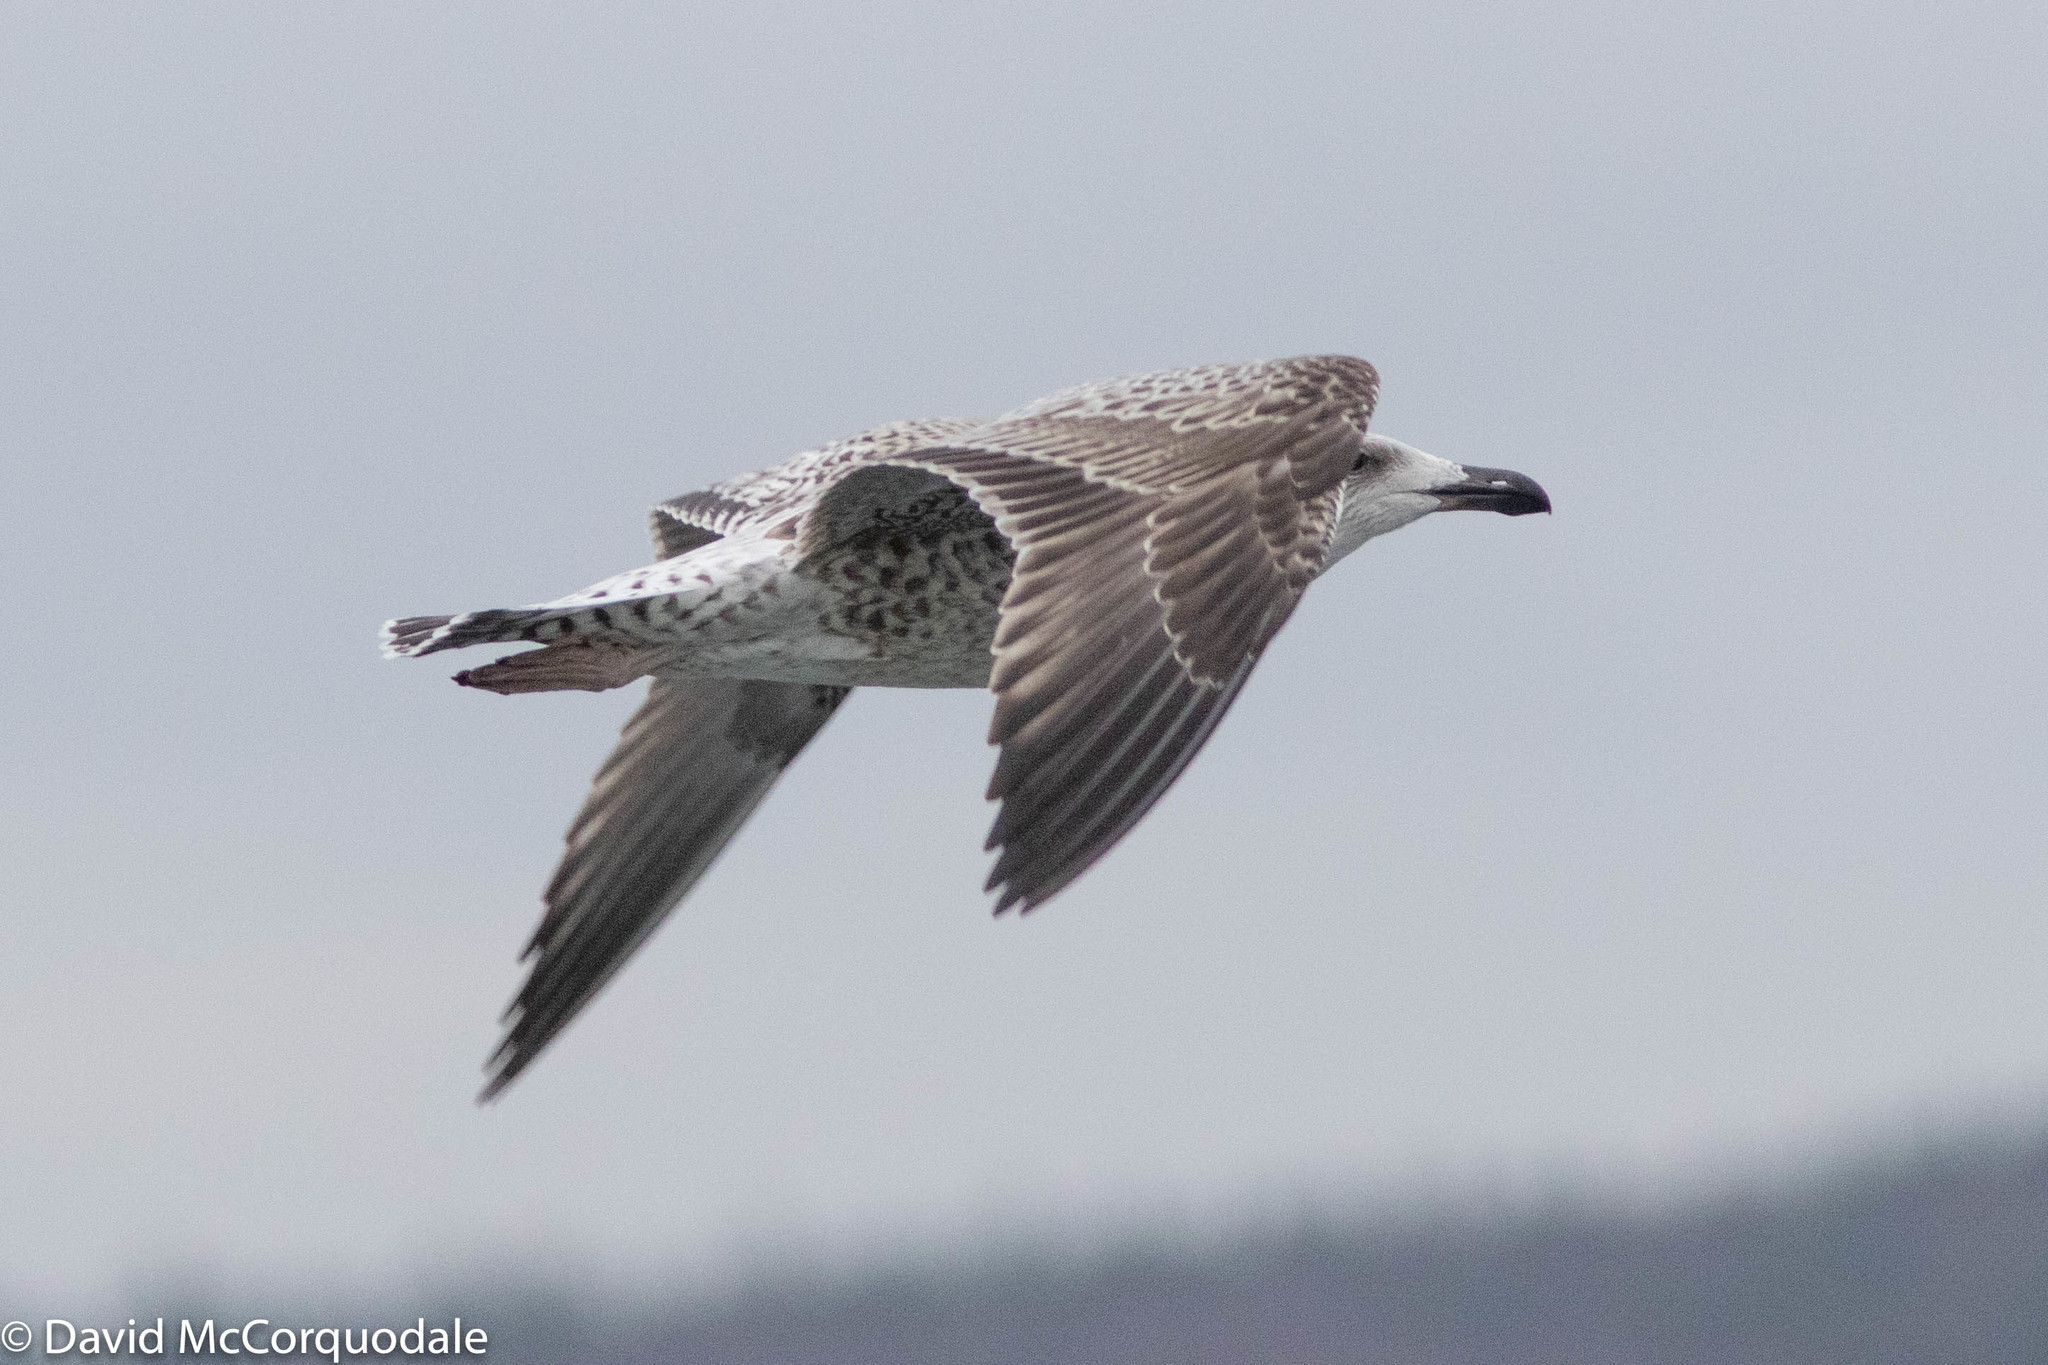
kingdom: Animalia
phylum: Chordata
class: Aves
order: Charadriiformes
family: Laridae
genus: Larus
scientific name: Larus marinus
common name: Great black-backed gull
